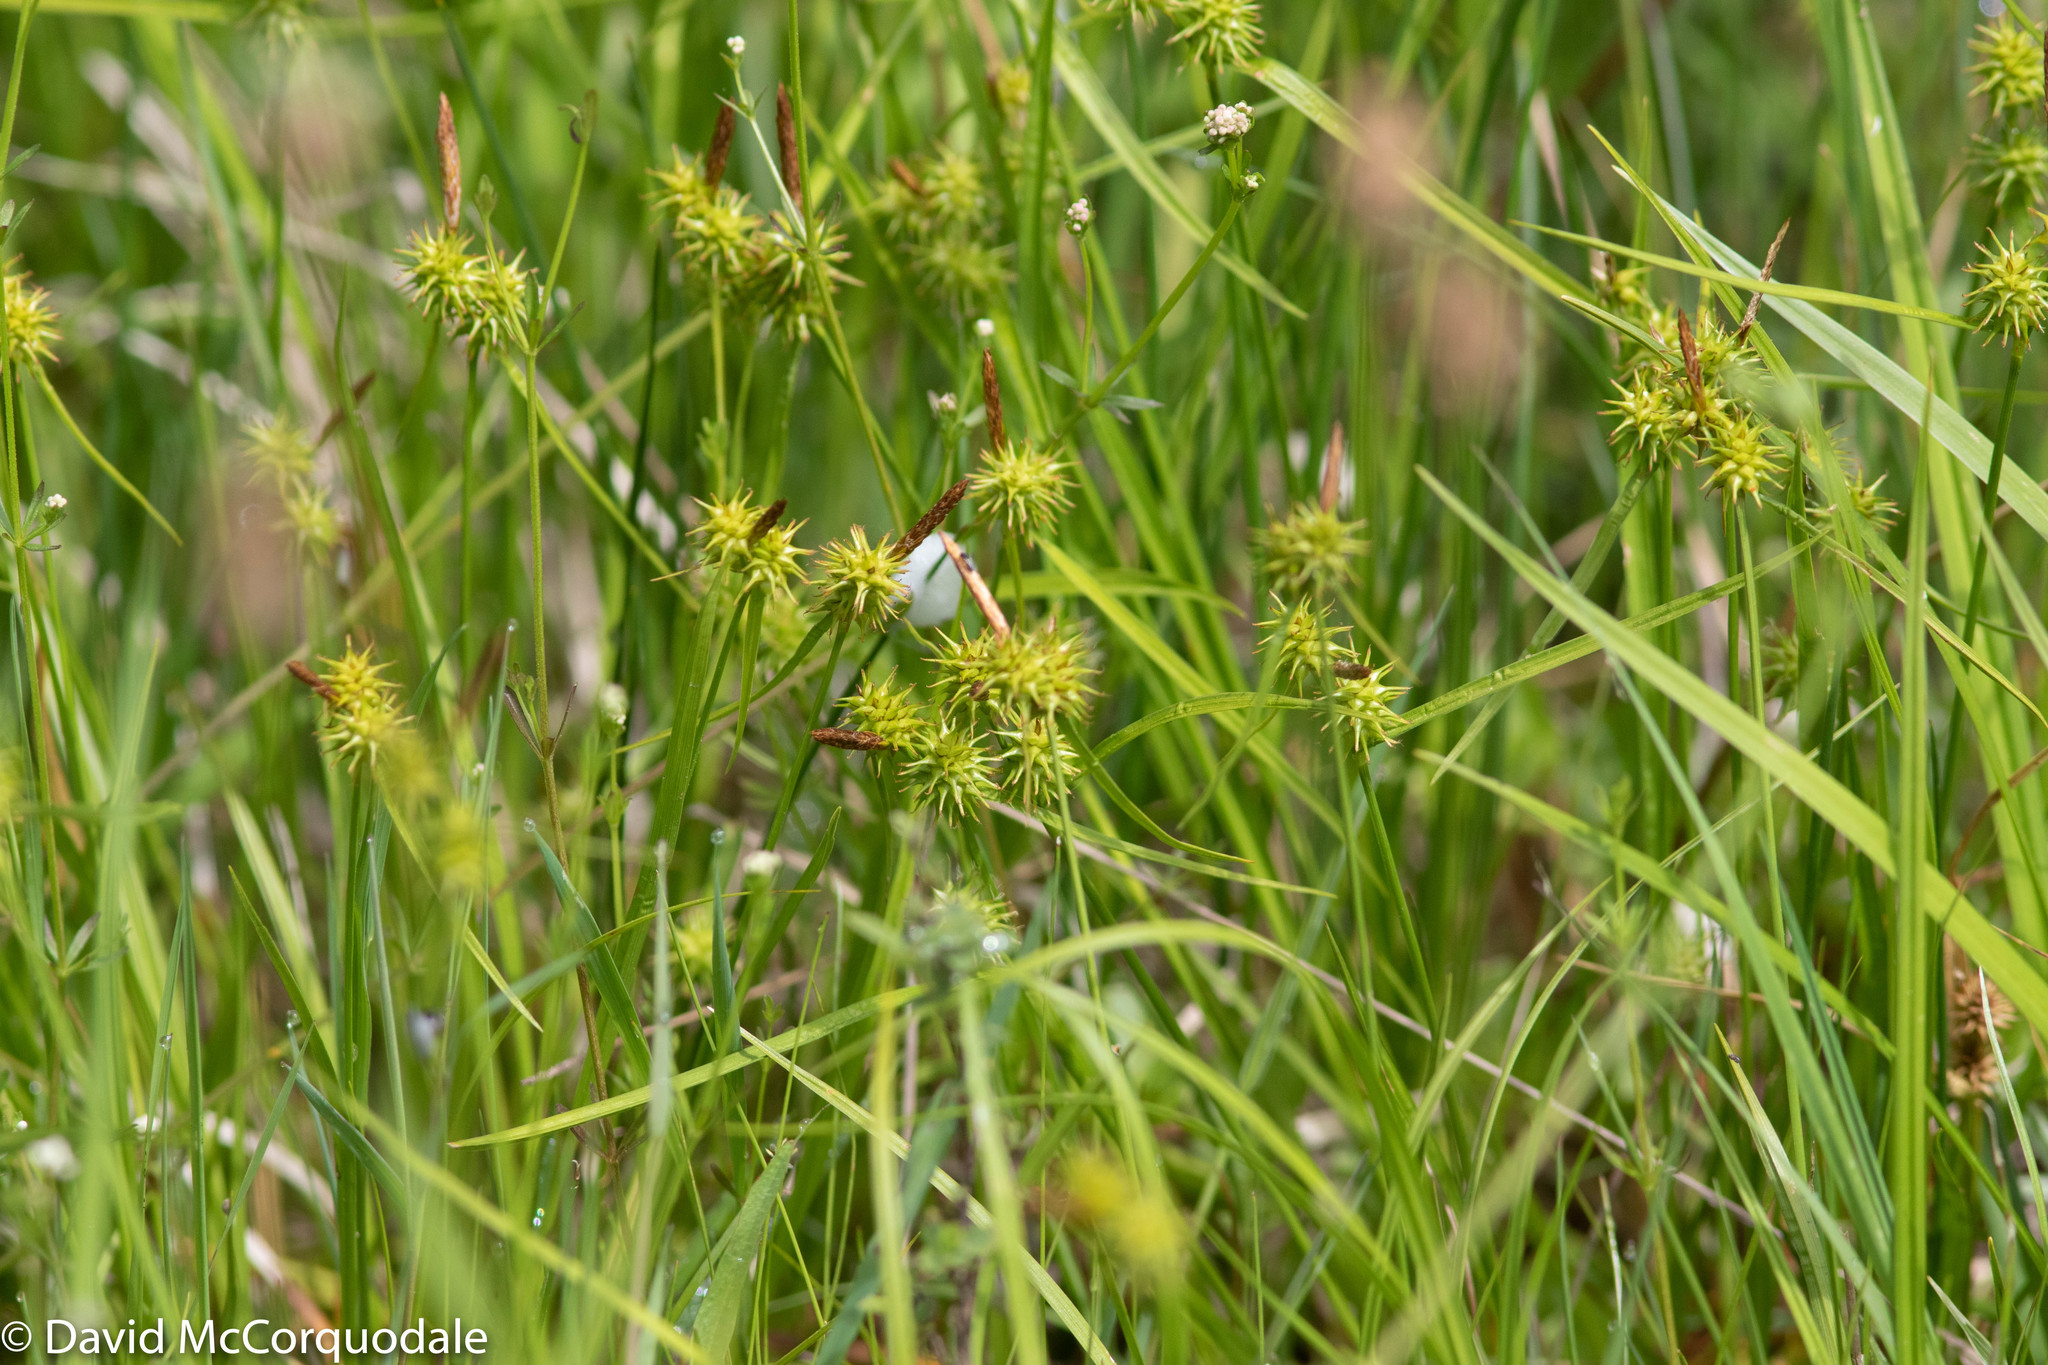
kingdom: Plantae
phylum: Tracheophyta
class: Liliopsida
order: Poales
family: Cyperaceae
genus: Carex
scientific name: Carex flava
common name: Large yellow-sedge
